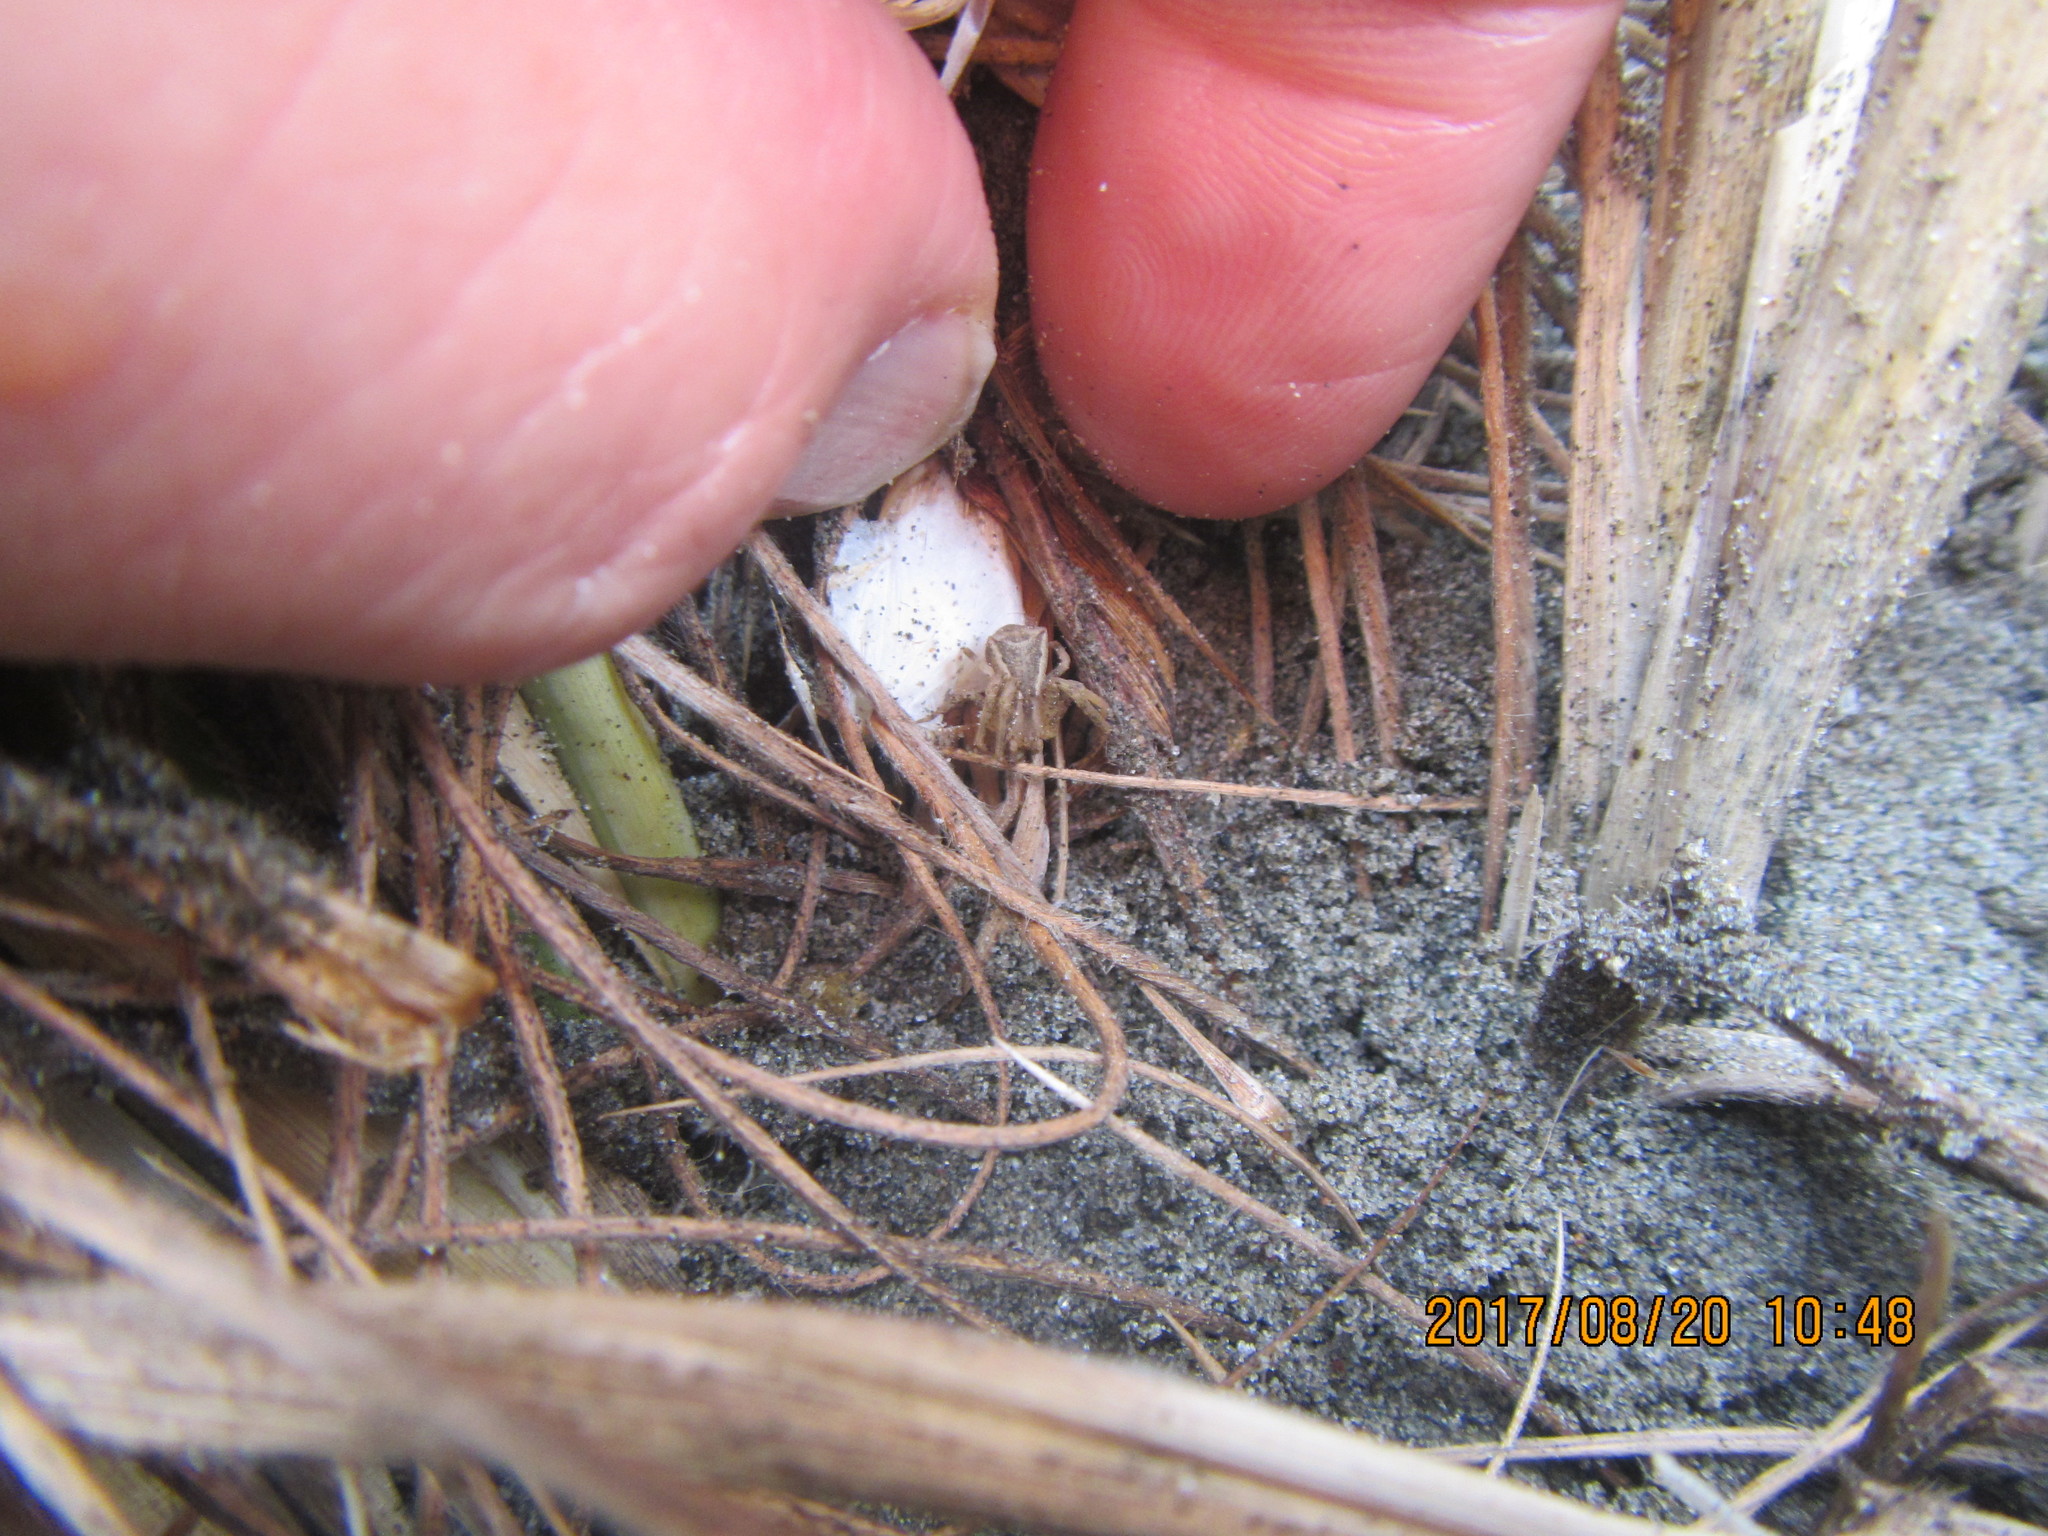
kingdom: Animalia
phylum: Arthropoda
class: Arachnida
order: Araneae
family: Thomisidae
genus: Sidymella
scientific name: Sidymella trapezia
